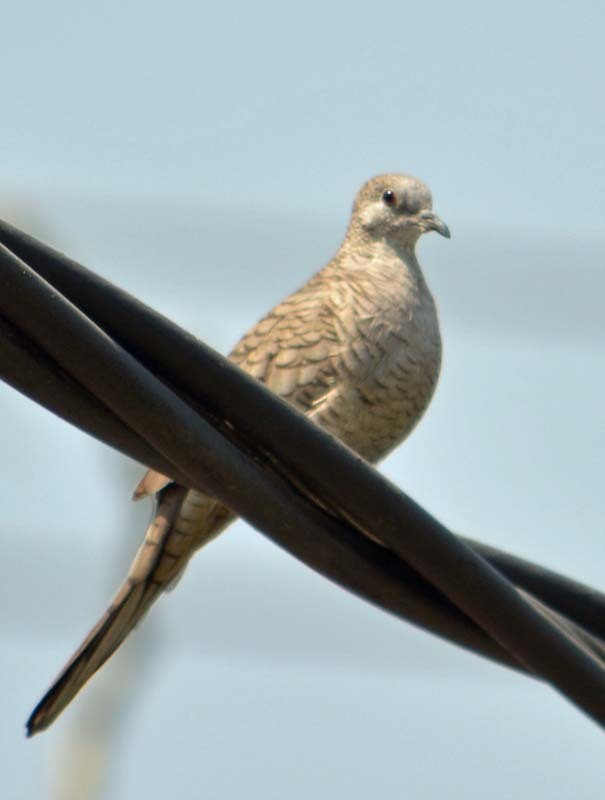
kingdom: Animalia
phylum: Chordata
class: Aves
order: Columbiformes
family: Columbidae
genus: Columbina
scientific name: Columbina inca
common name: Inca dove
